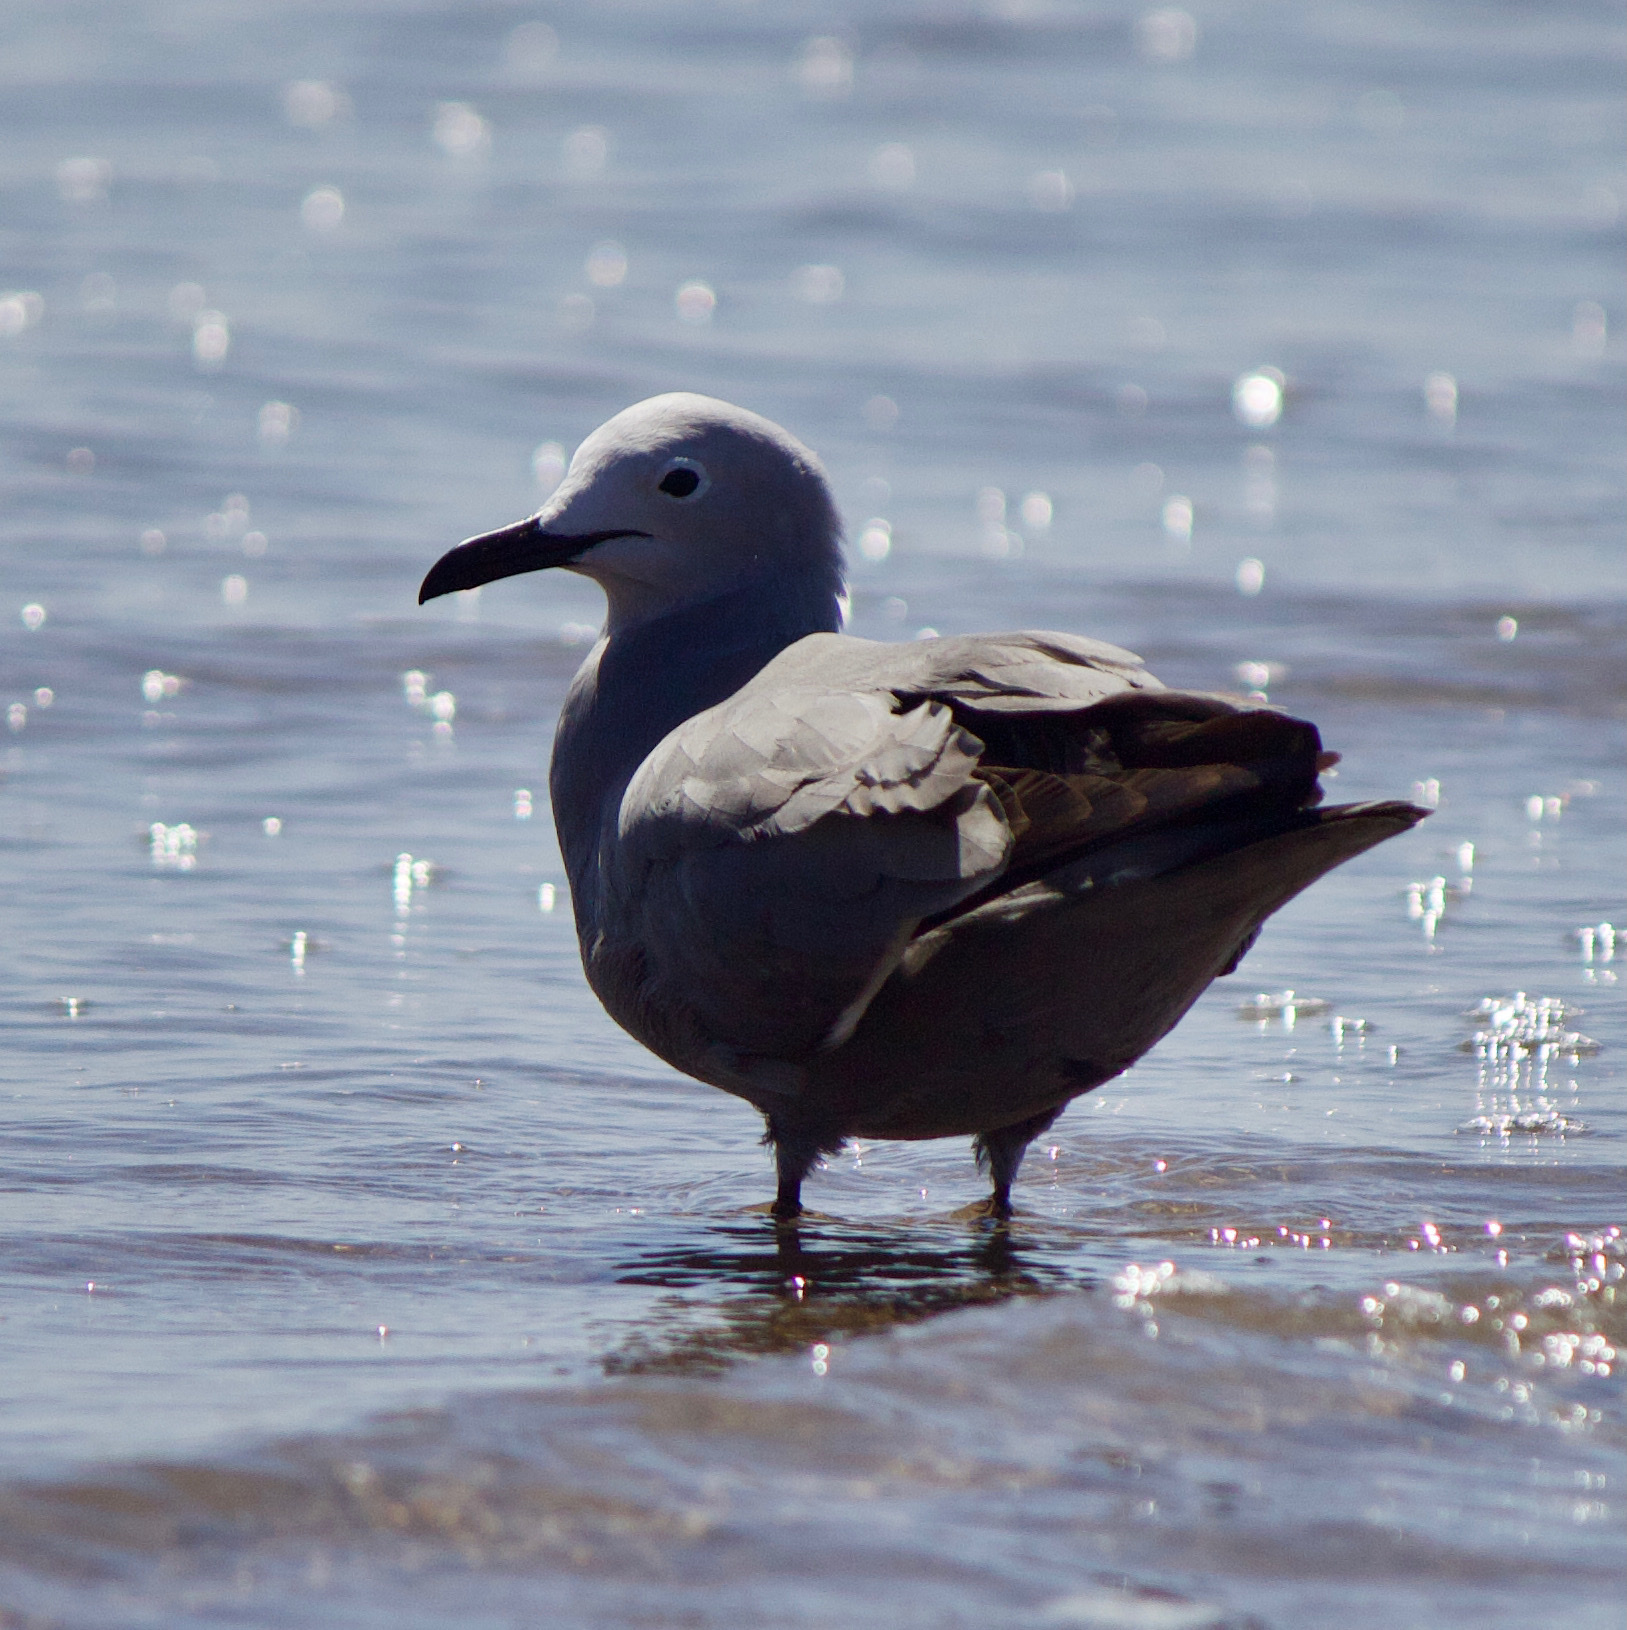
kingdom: Animalia
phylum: Chordata
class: Aves
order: Charadriiformes
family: Laridae
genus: Leucophaeus
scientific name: Leucophaeus modestus
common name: Gray gull
